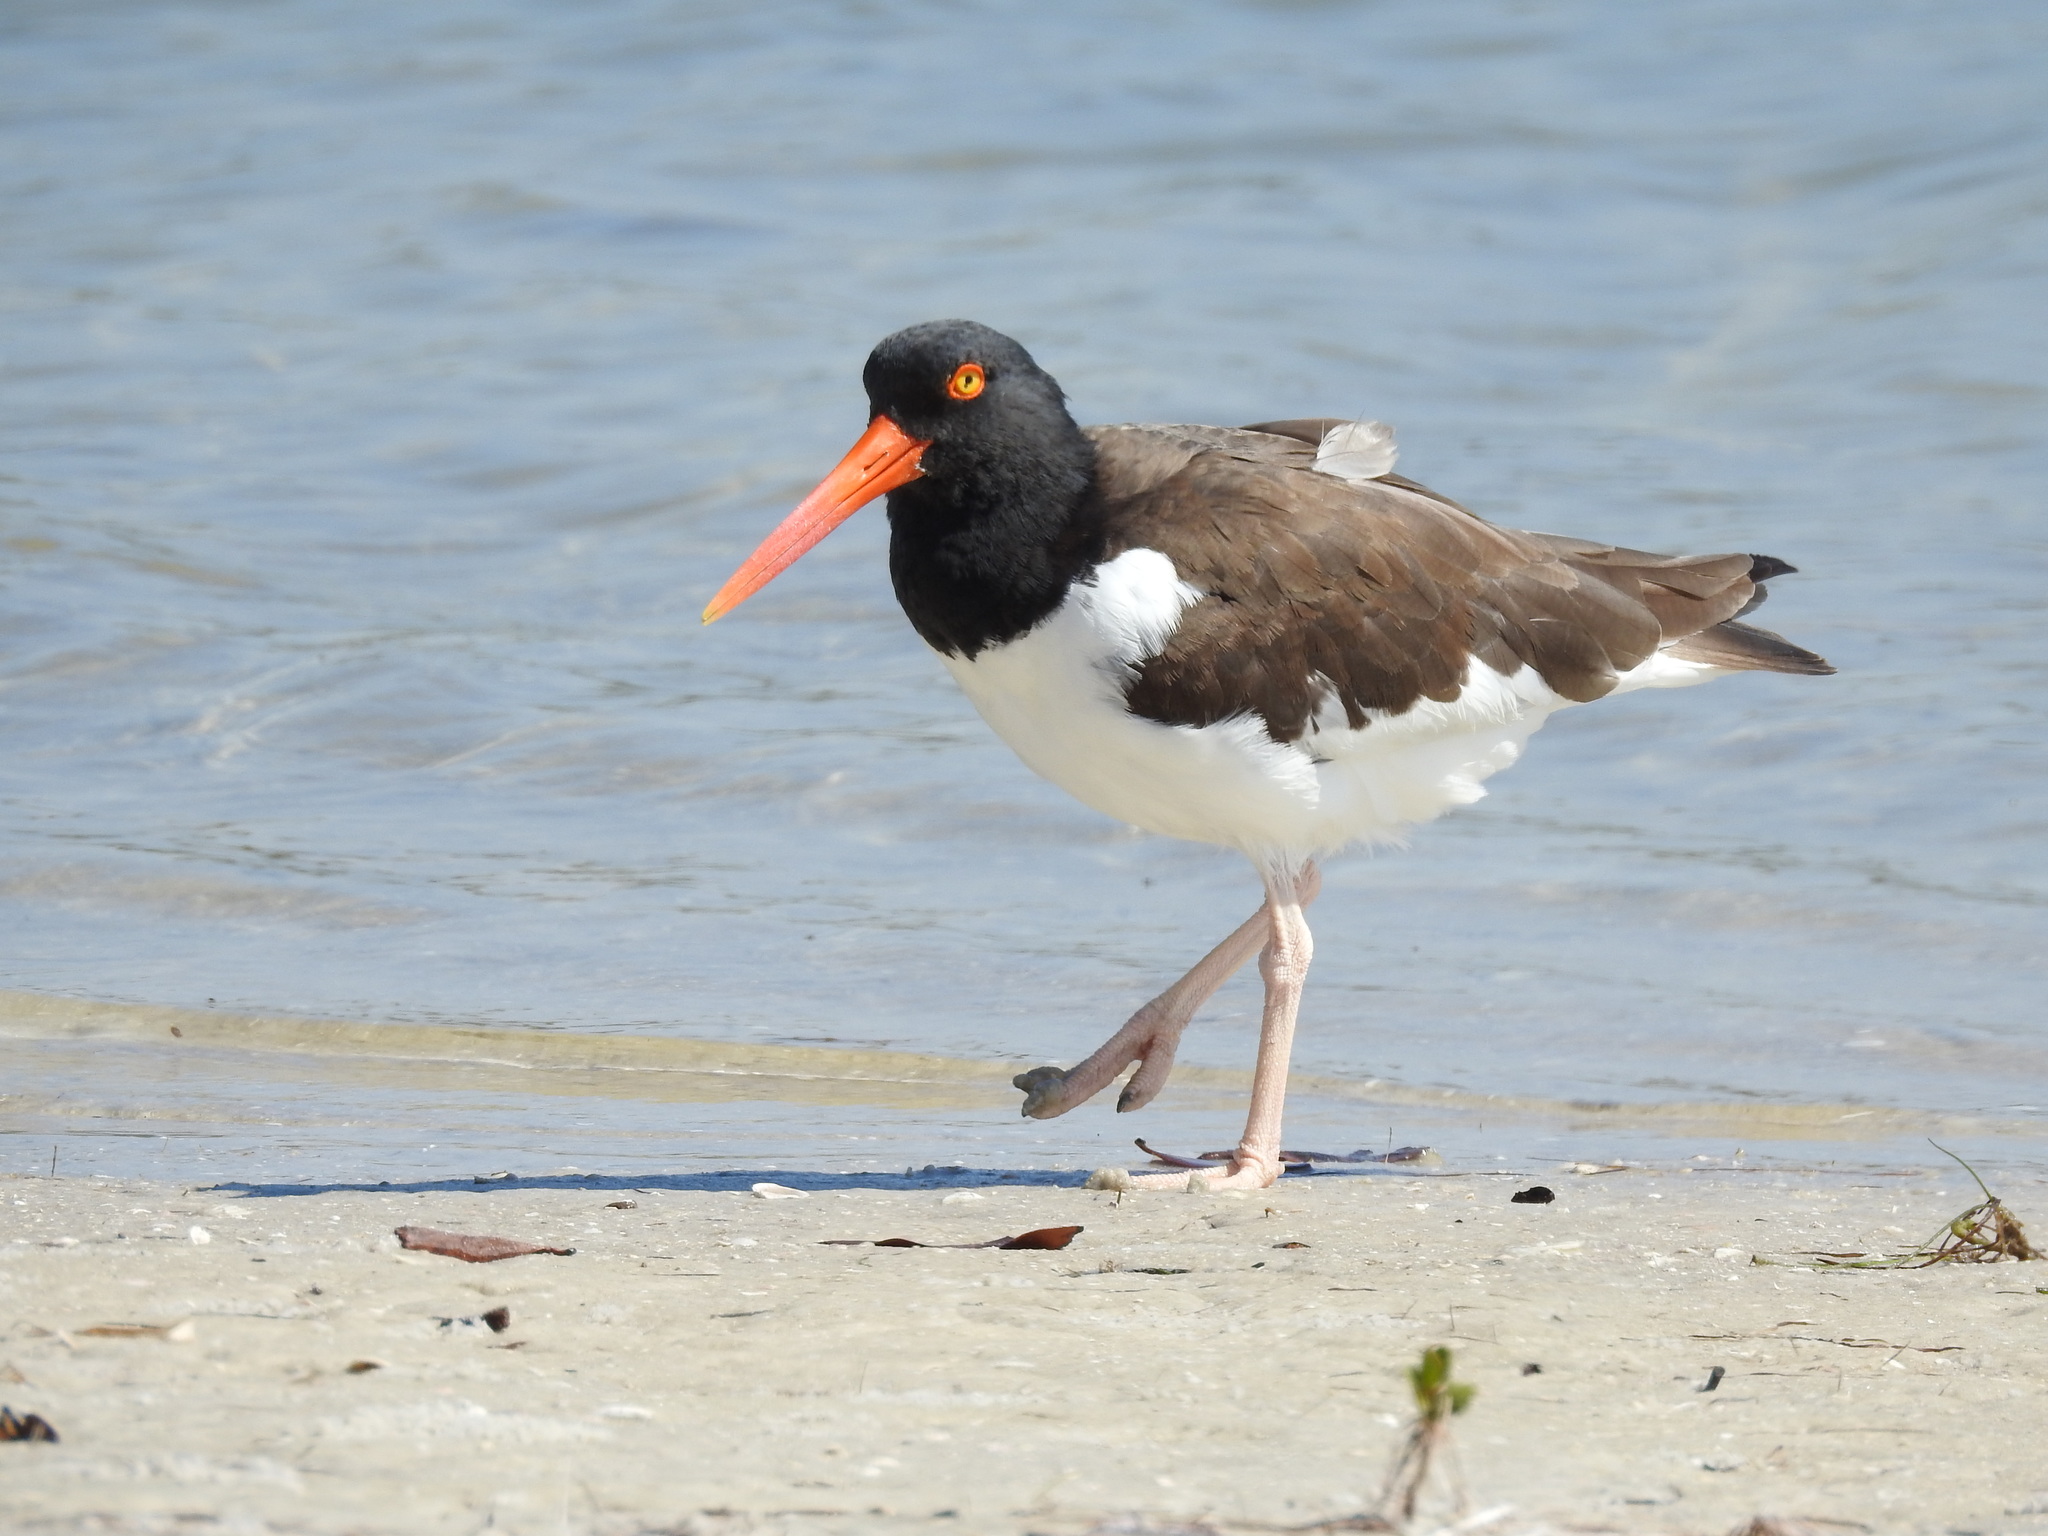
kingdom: Animalia
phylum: Chordata
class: Aves
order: Charadriiformes
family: Haematopodidae
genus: Haematopus
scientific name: Haematopus palliatus
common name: American oystercatcher
